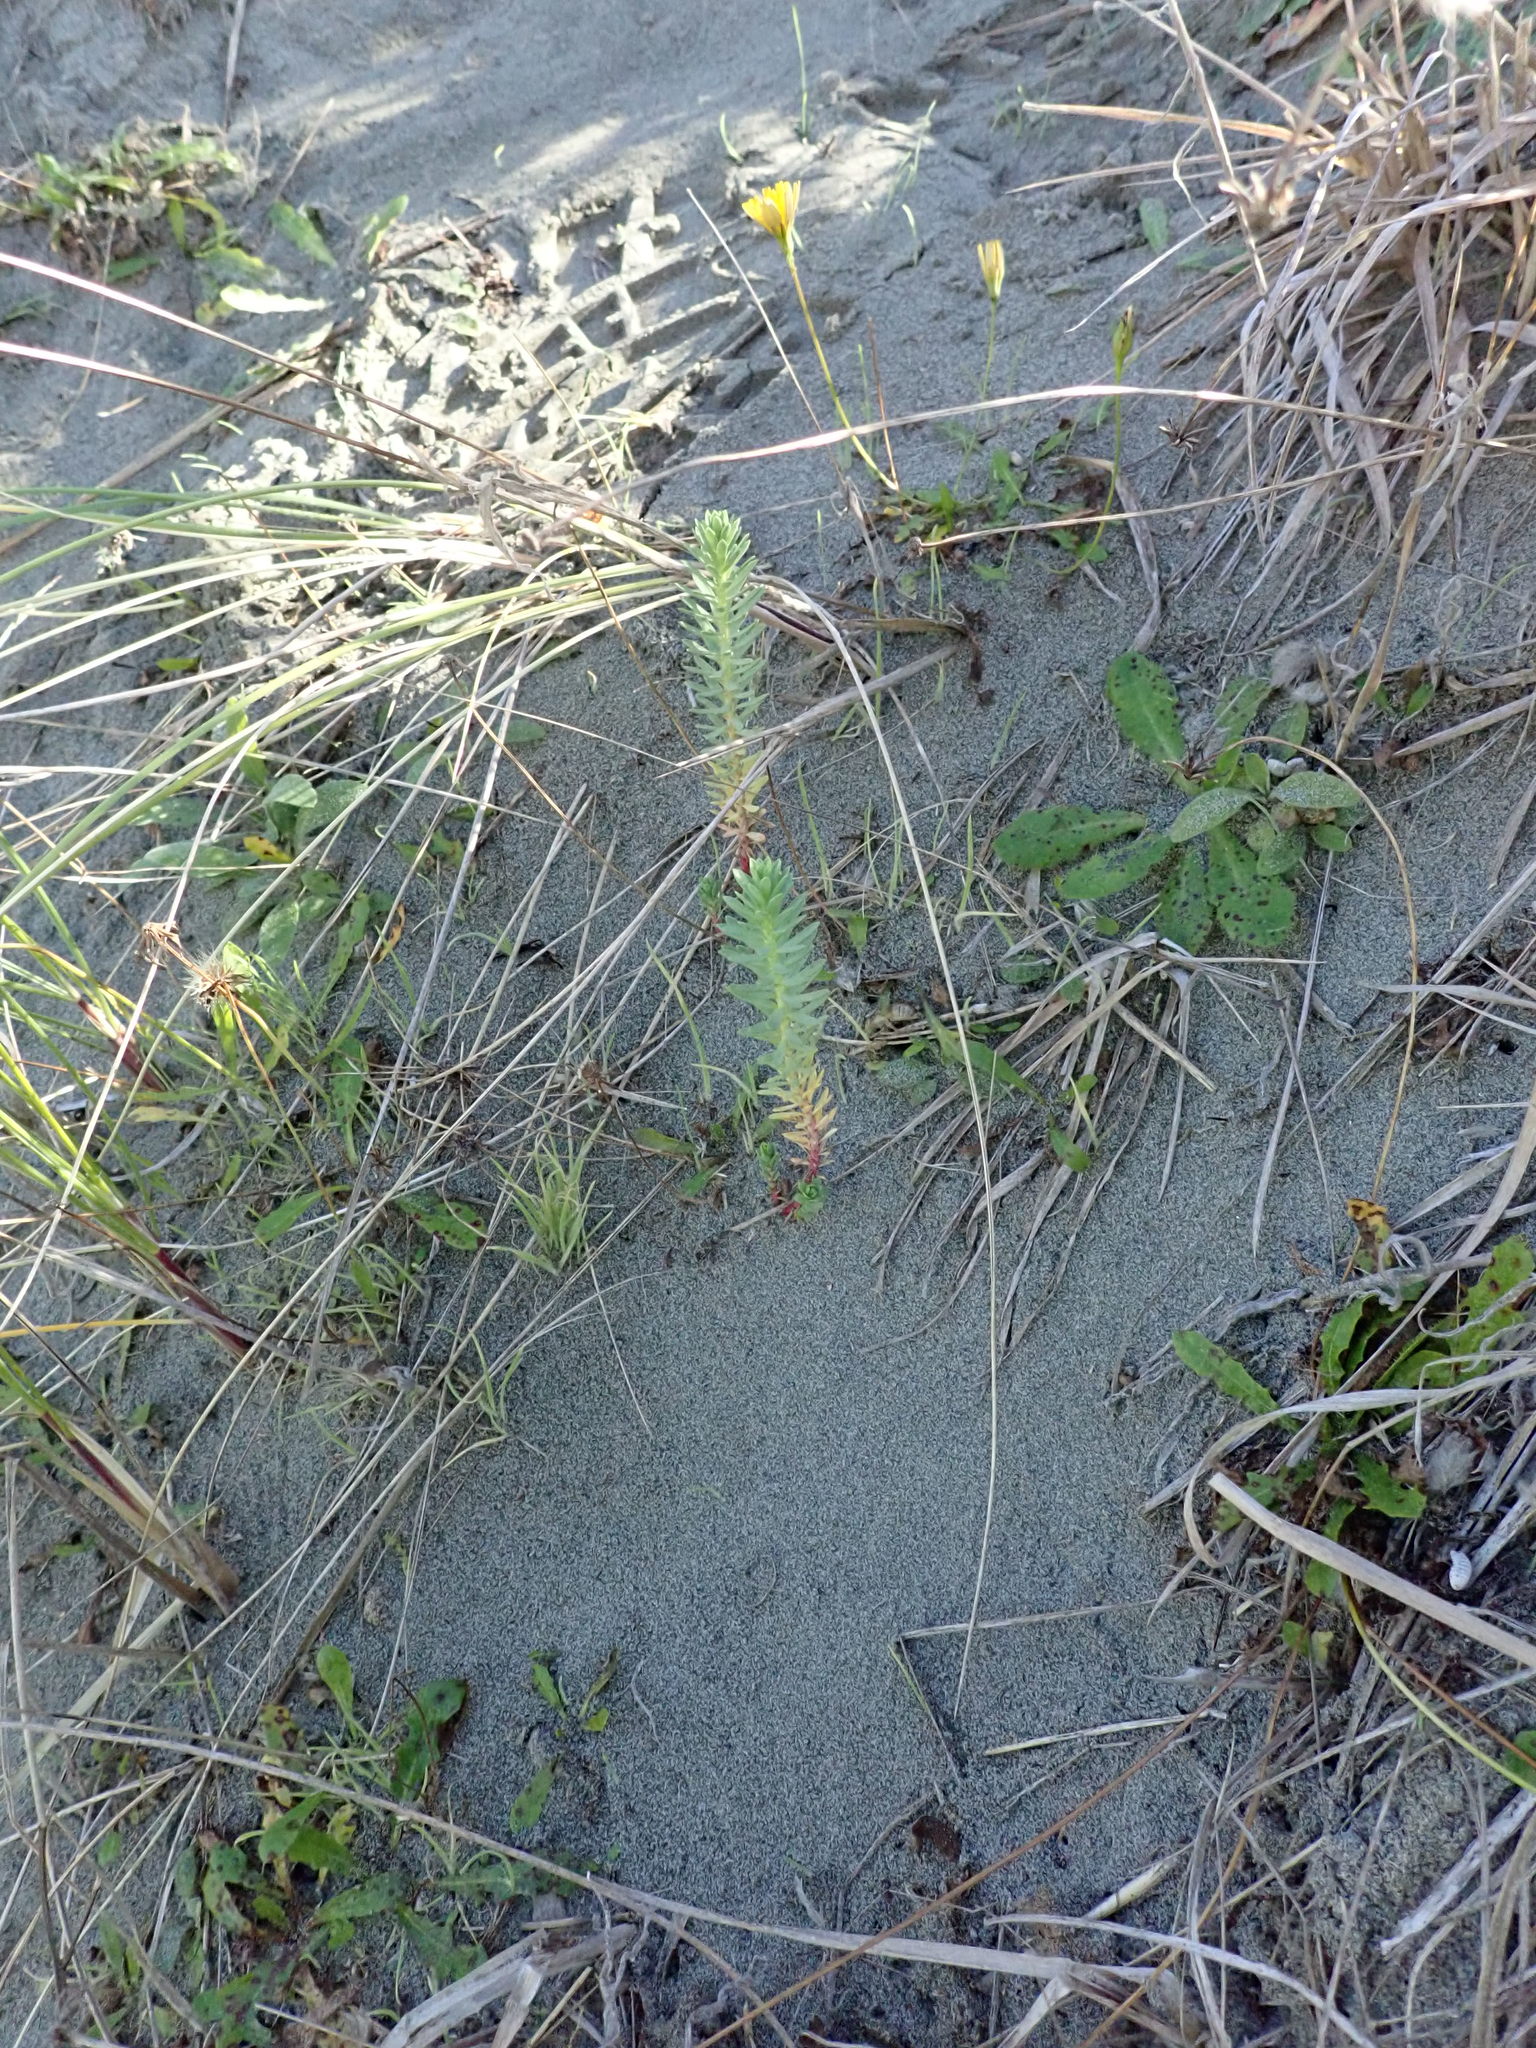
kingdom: Plantae
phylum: Tracheophyta
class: Magnoliopsida
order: Malpighiales
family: Euphorbiaceae
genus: Euphorbia
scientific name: Euphorbia paralias
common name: Sea spurge
